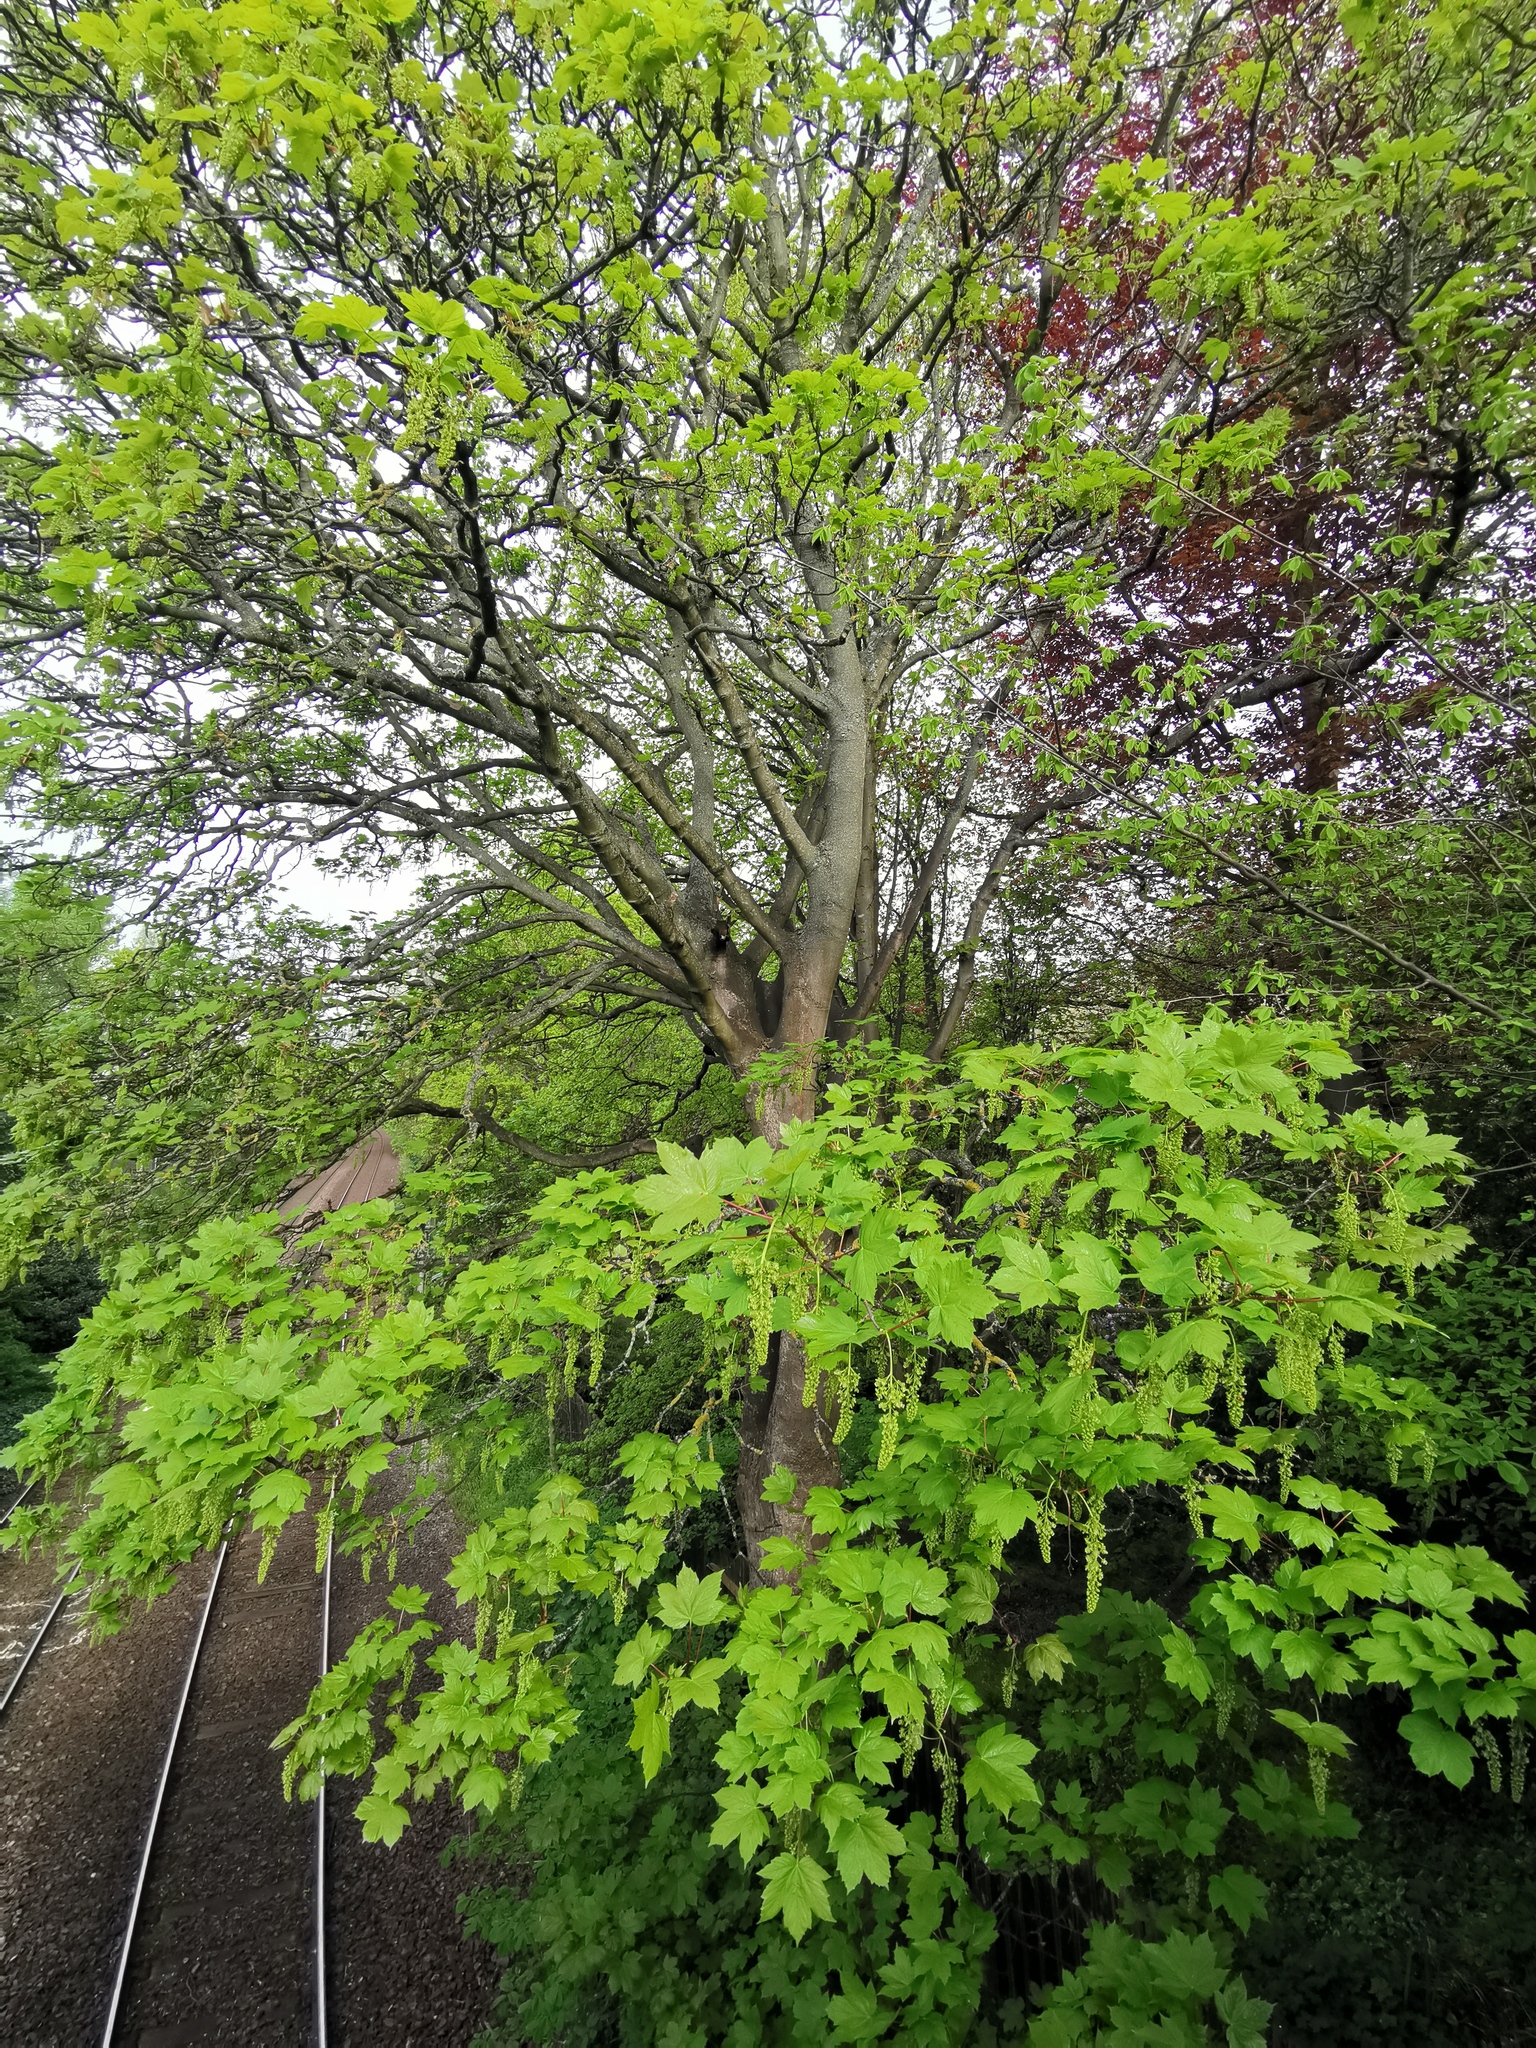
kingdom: Plantae
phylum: Tracheophyta
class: Magnoliopsida
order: Sapindales
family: Sapindaceae
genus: Acer
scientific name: Acer pseudoplatanus
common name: Sycamore
